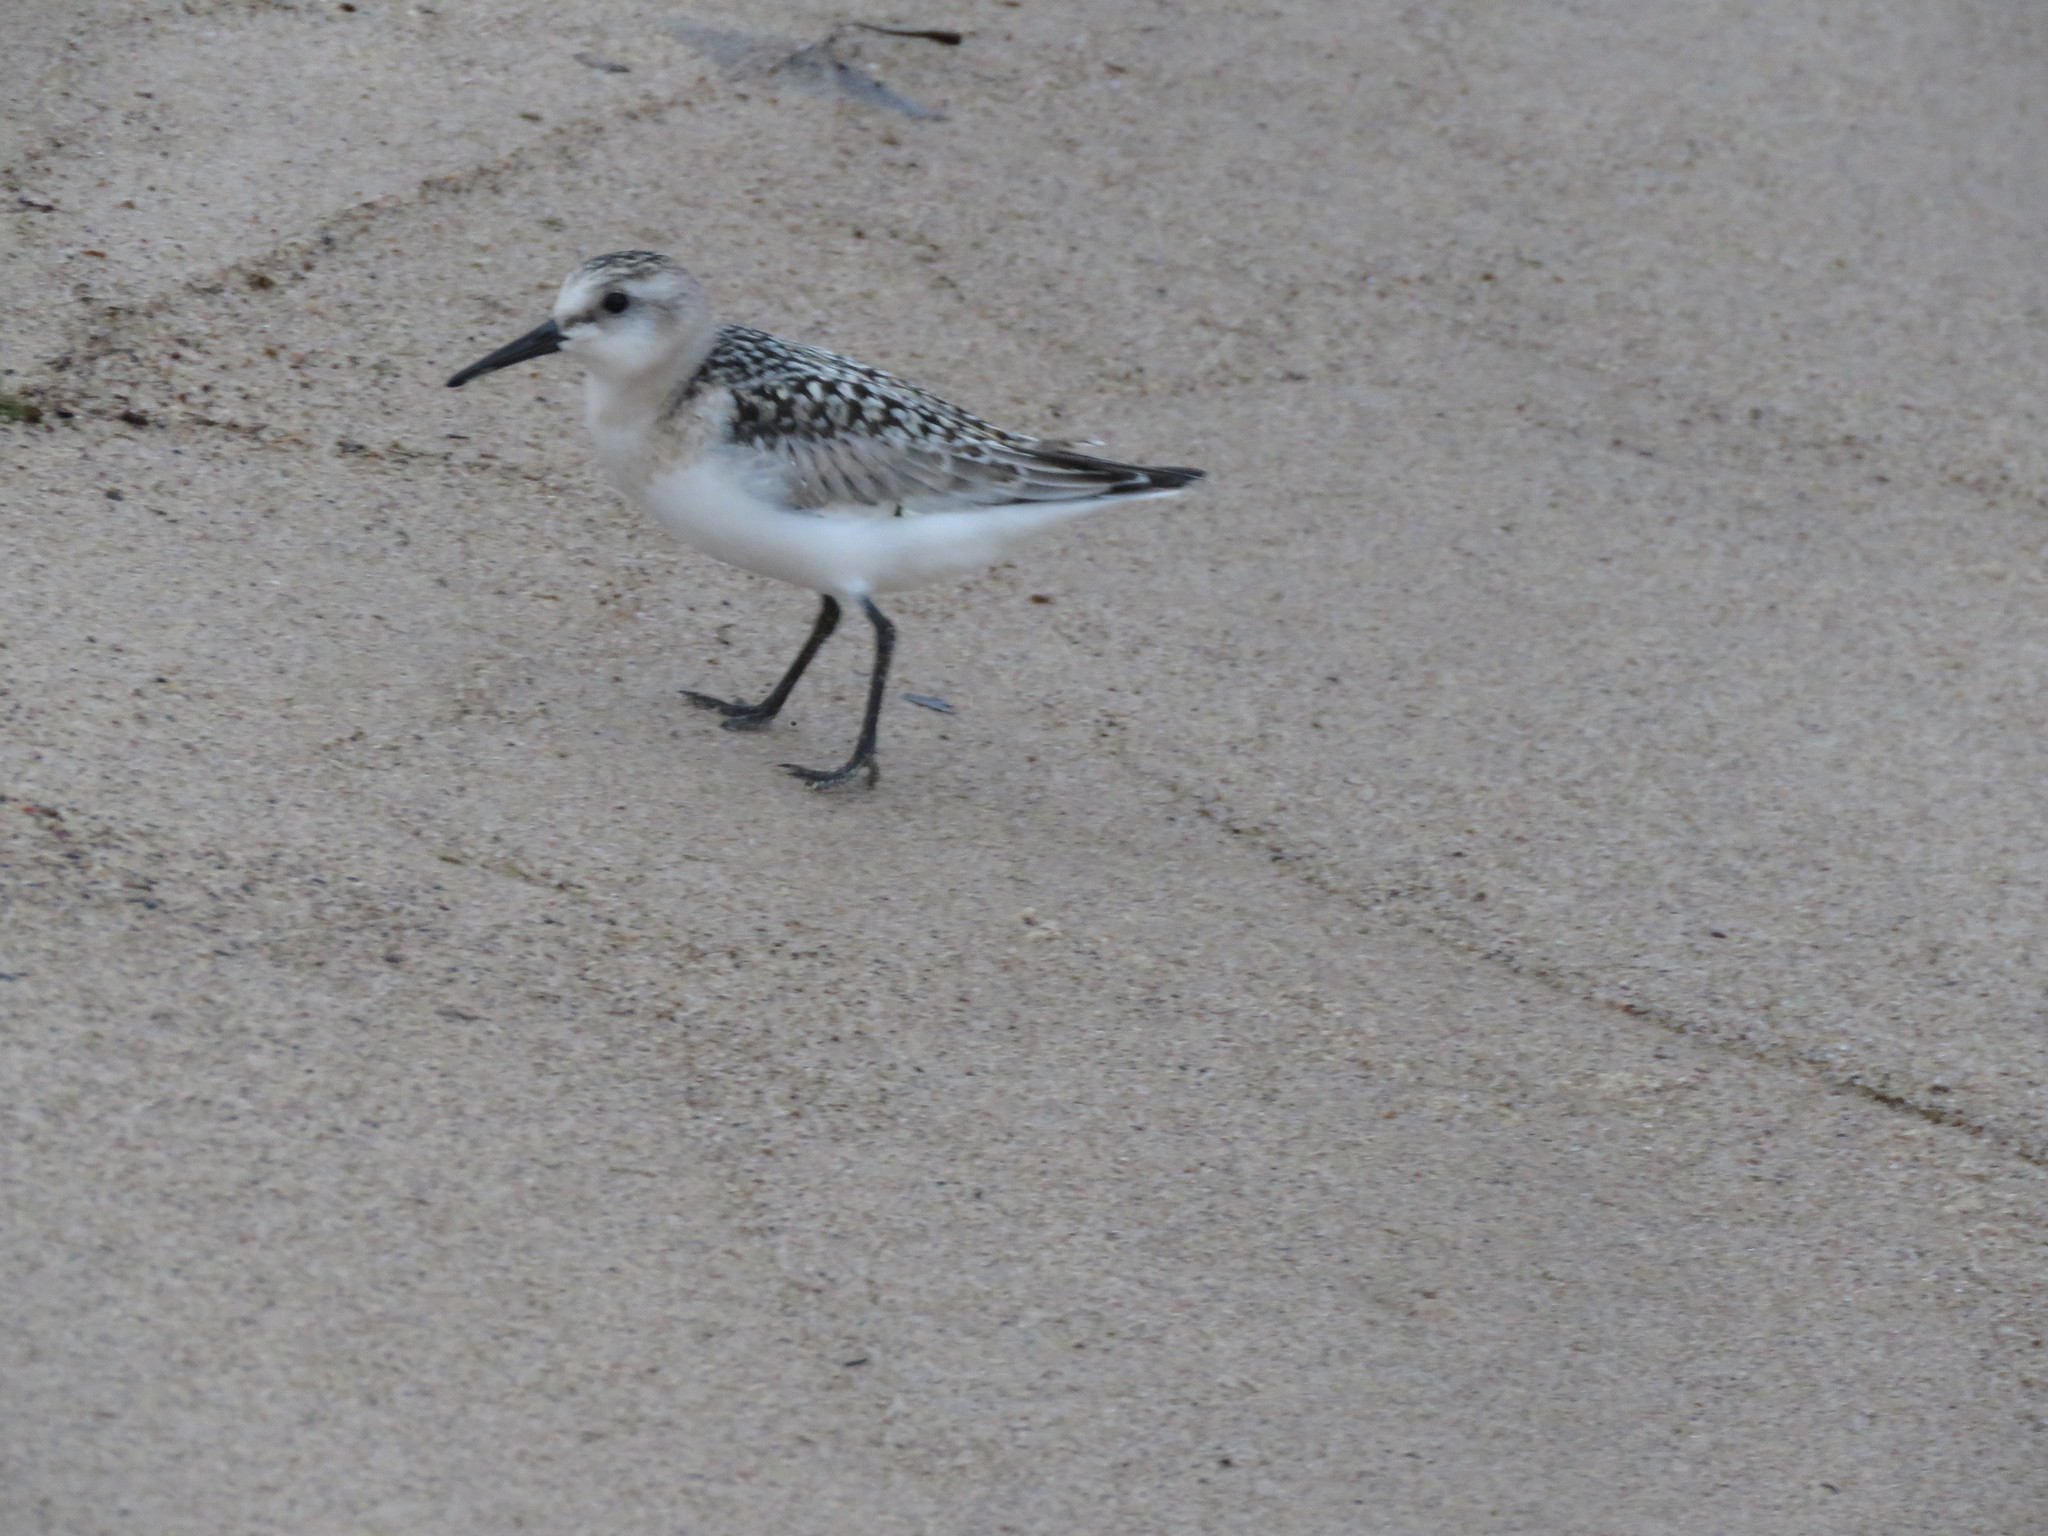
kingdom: Animalia
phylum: Chordata
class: Aves
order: Charadriiformes
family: Scolopacidae
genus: Calidris
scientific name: Calidris alba
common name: Sanderling
